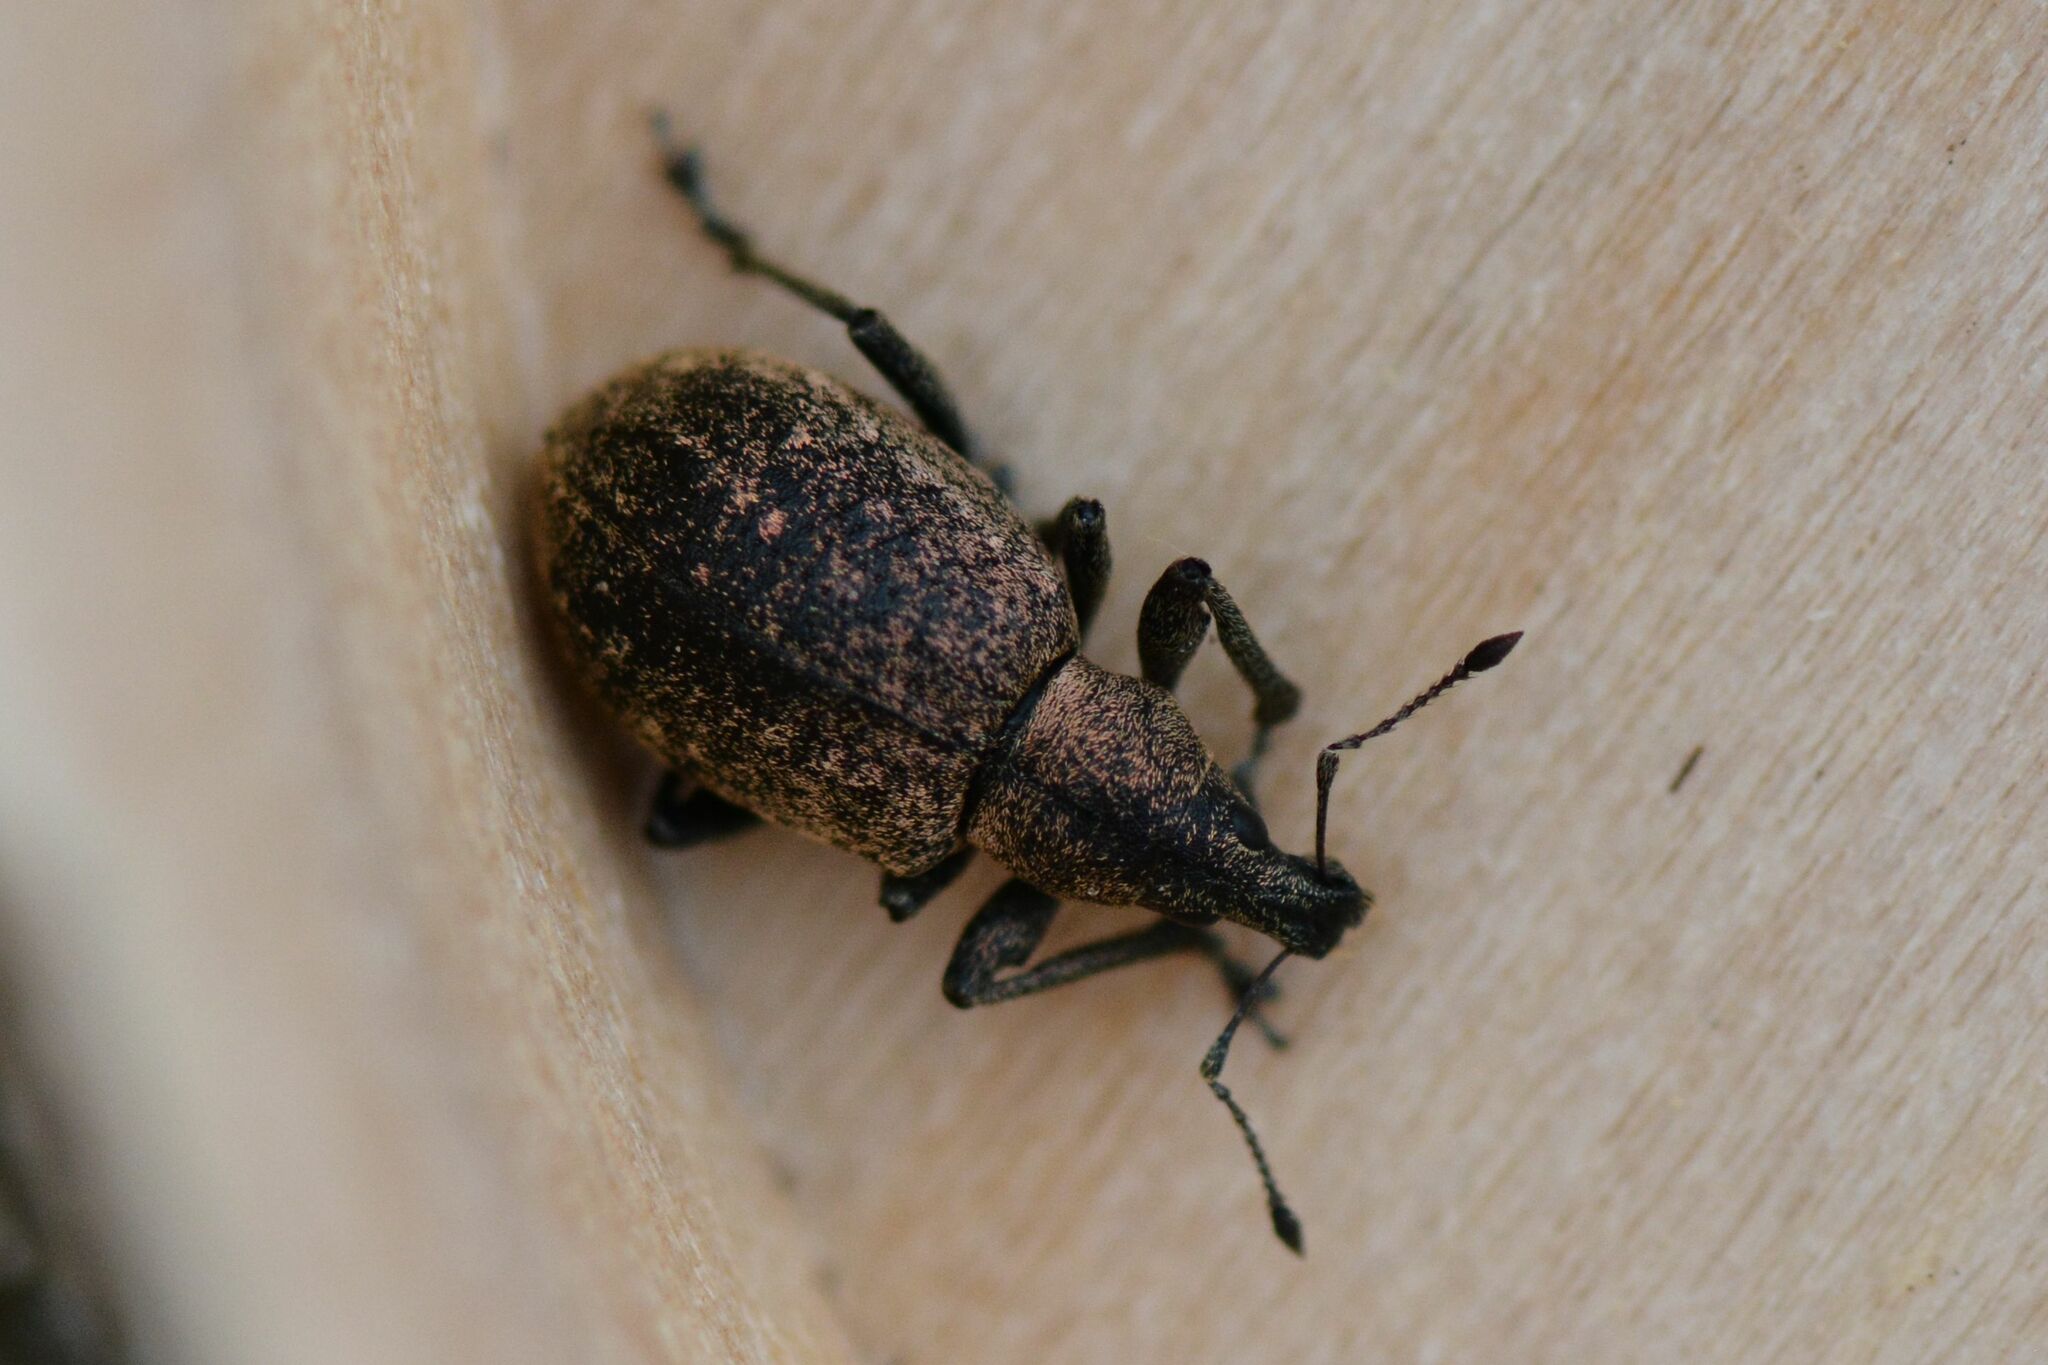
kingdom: Animalia
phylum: Arthropoda
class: Insecta
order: Coleoptera
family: Curculionidae
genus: Liophloeus
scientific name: Liophloeus tessulatus
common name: Weevil
